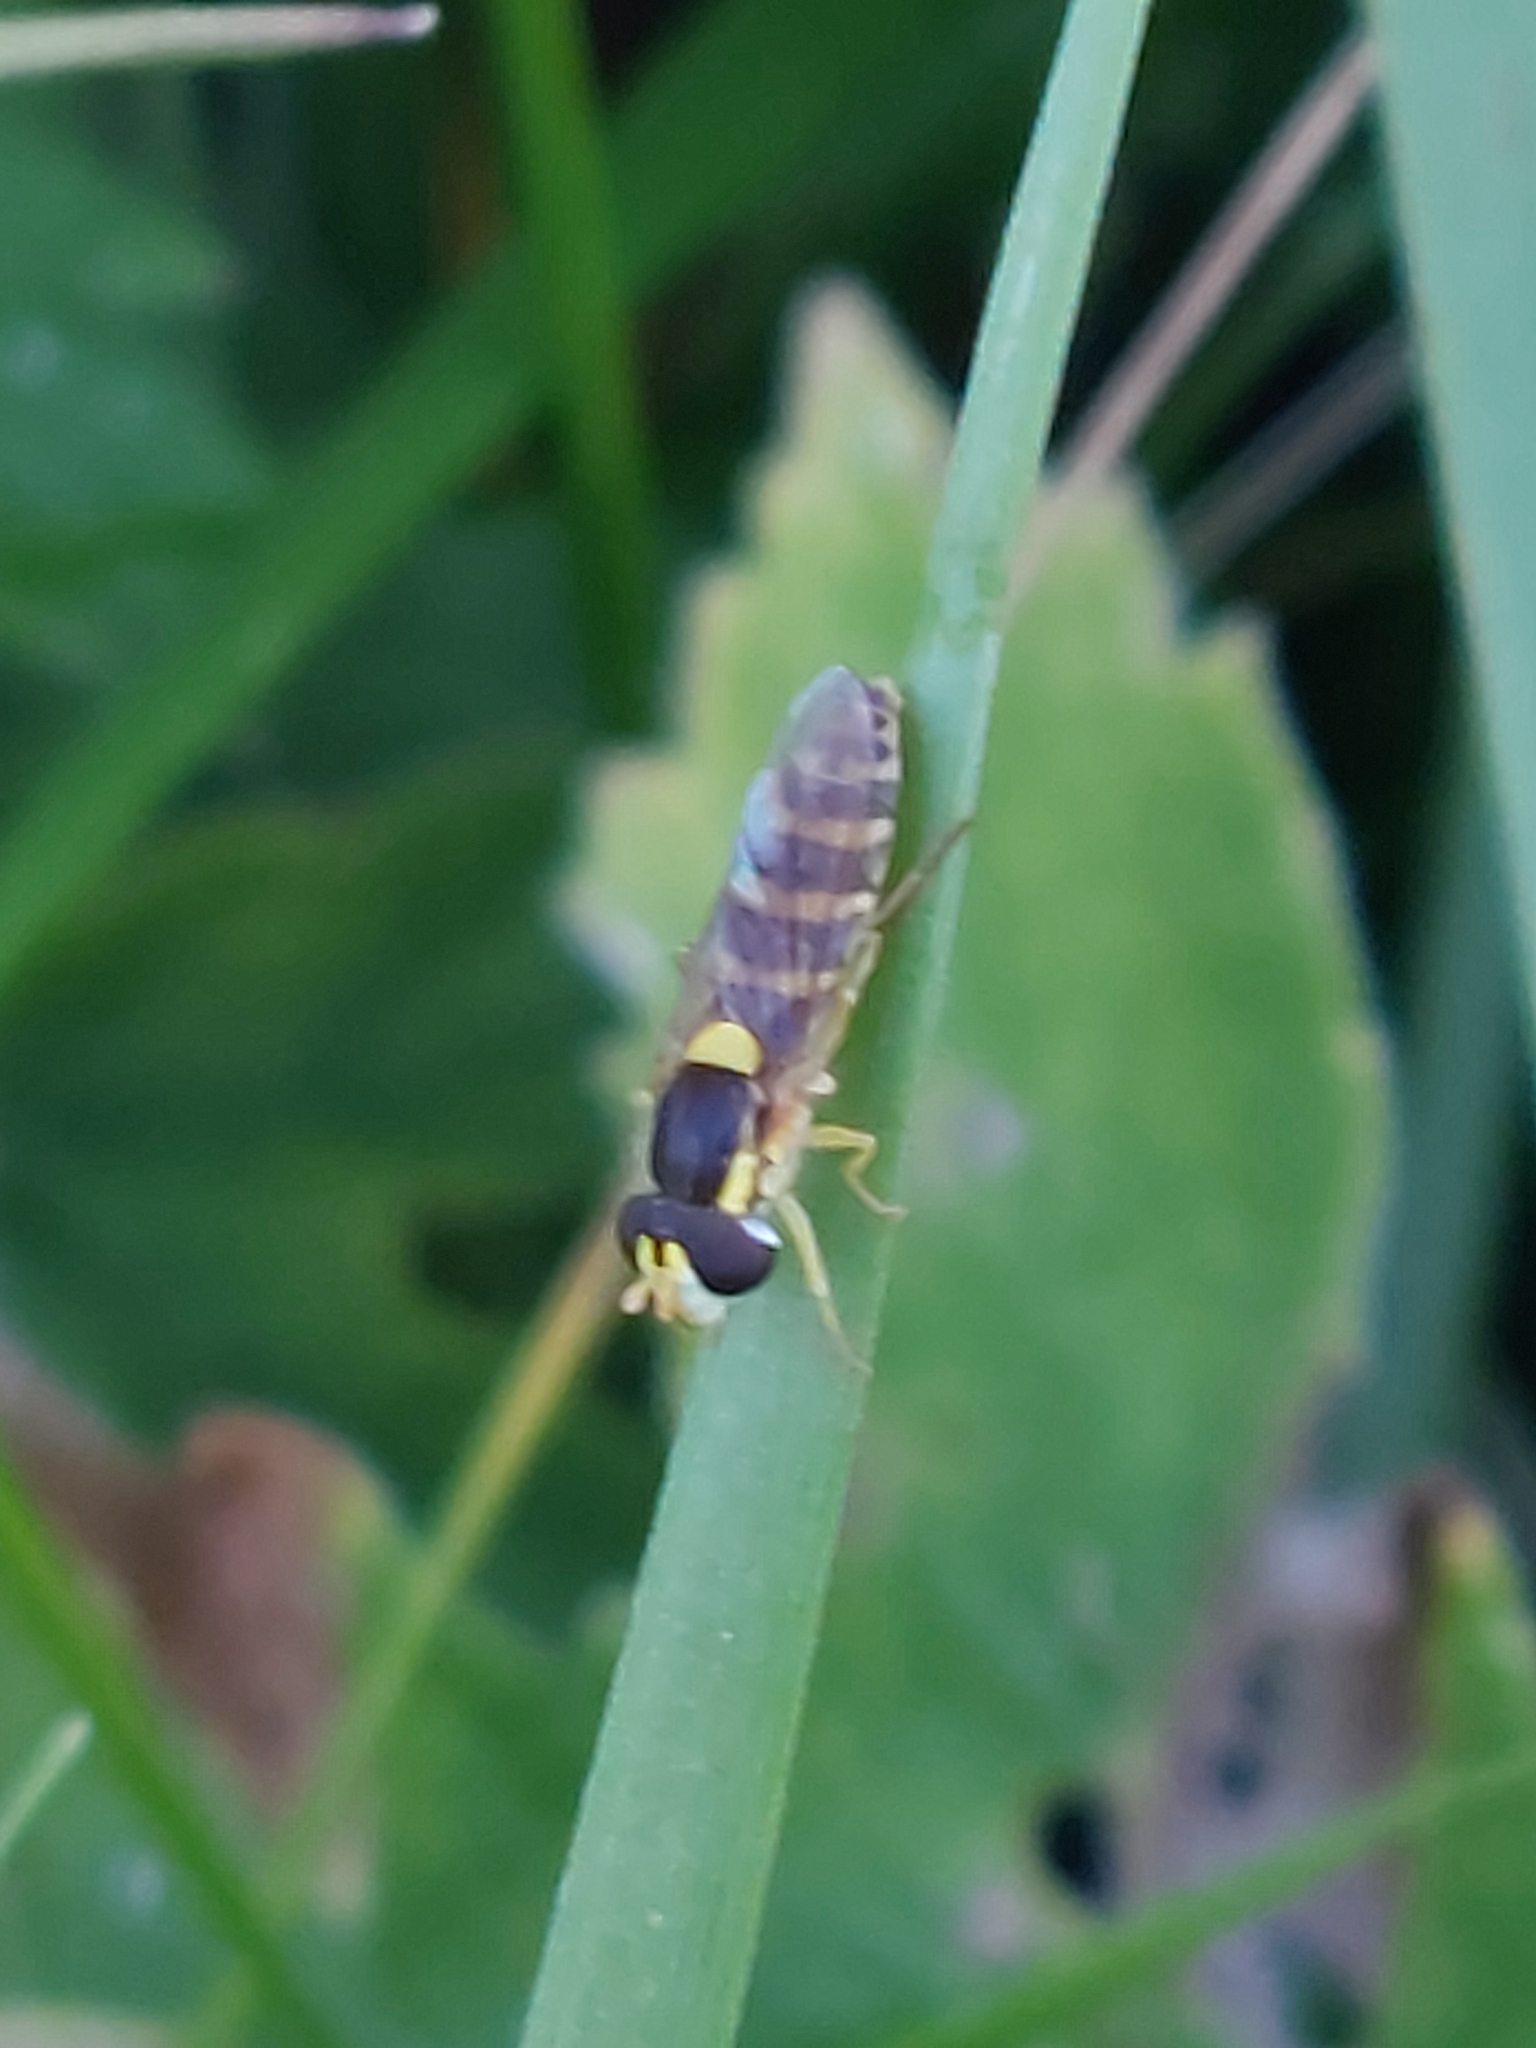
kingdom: Animalia
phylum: Arthropoda
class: Insecta
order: Diptera
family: Syrphidae
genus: Sphaerophoria
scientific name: Sphaerophoria
